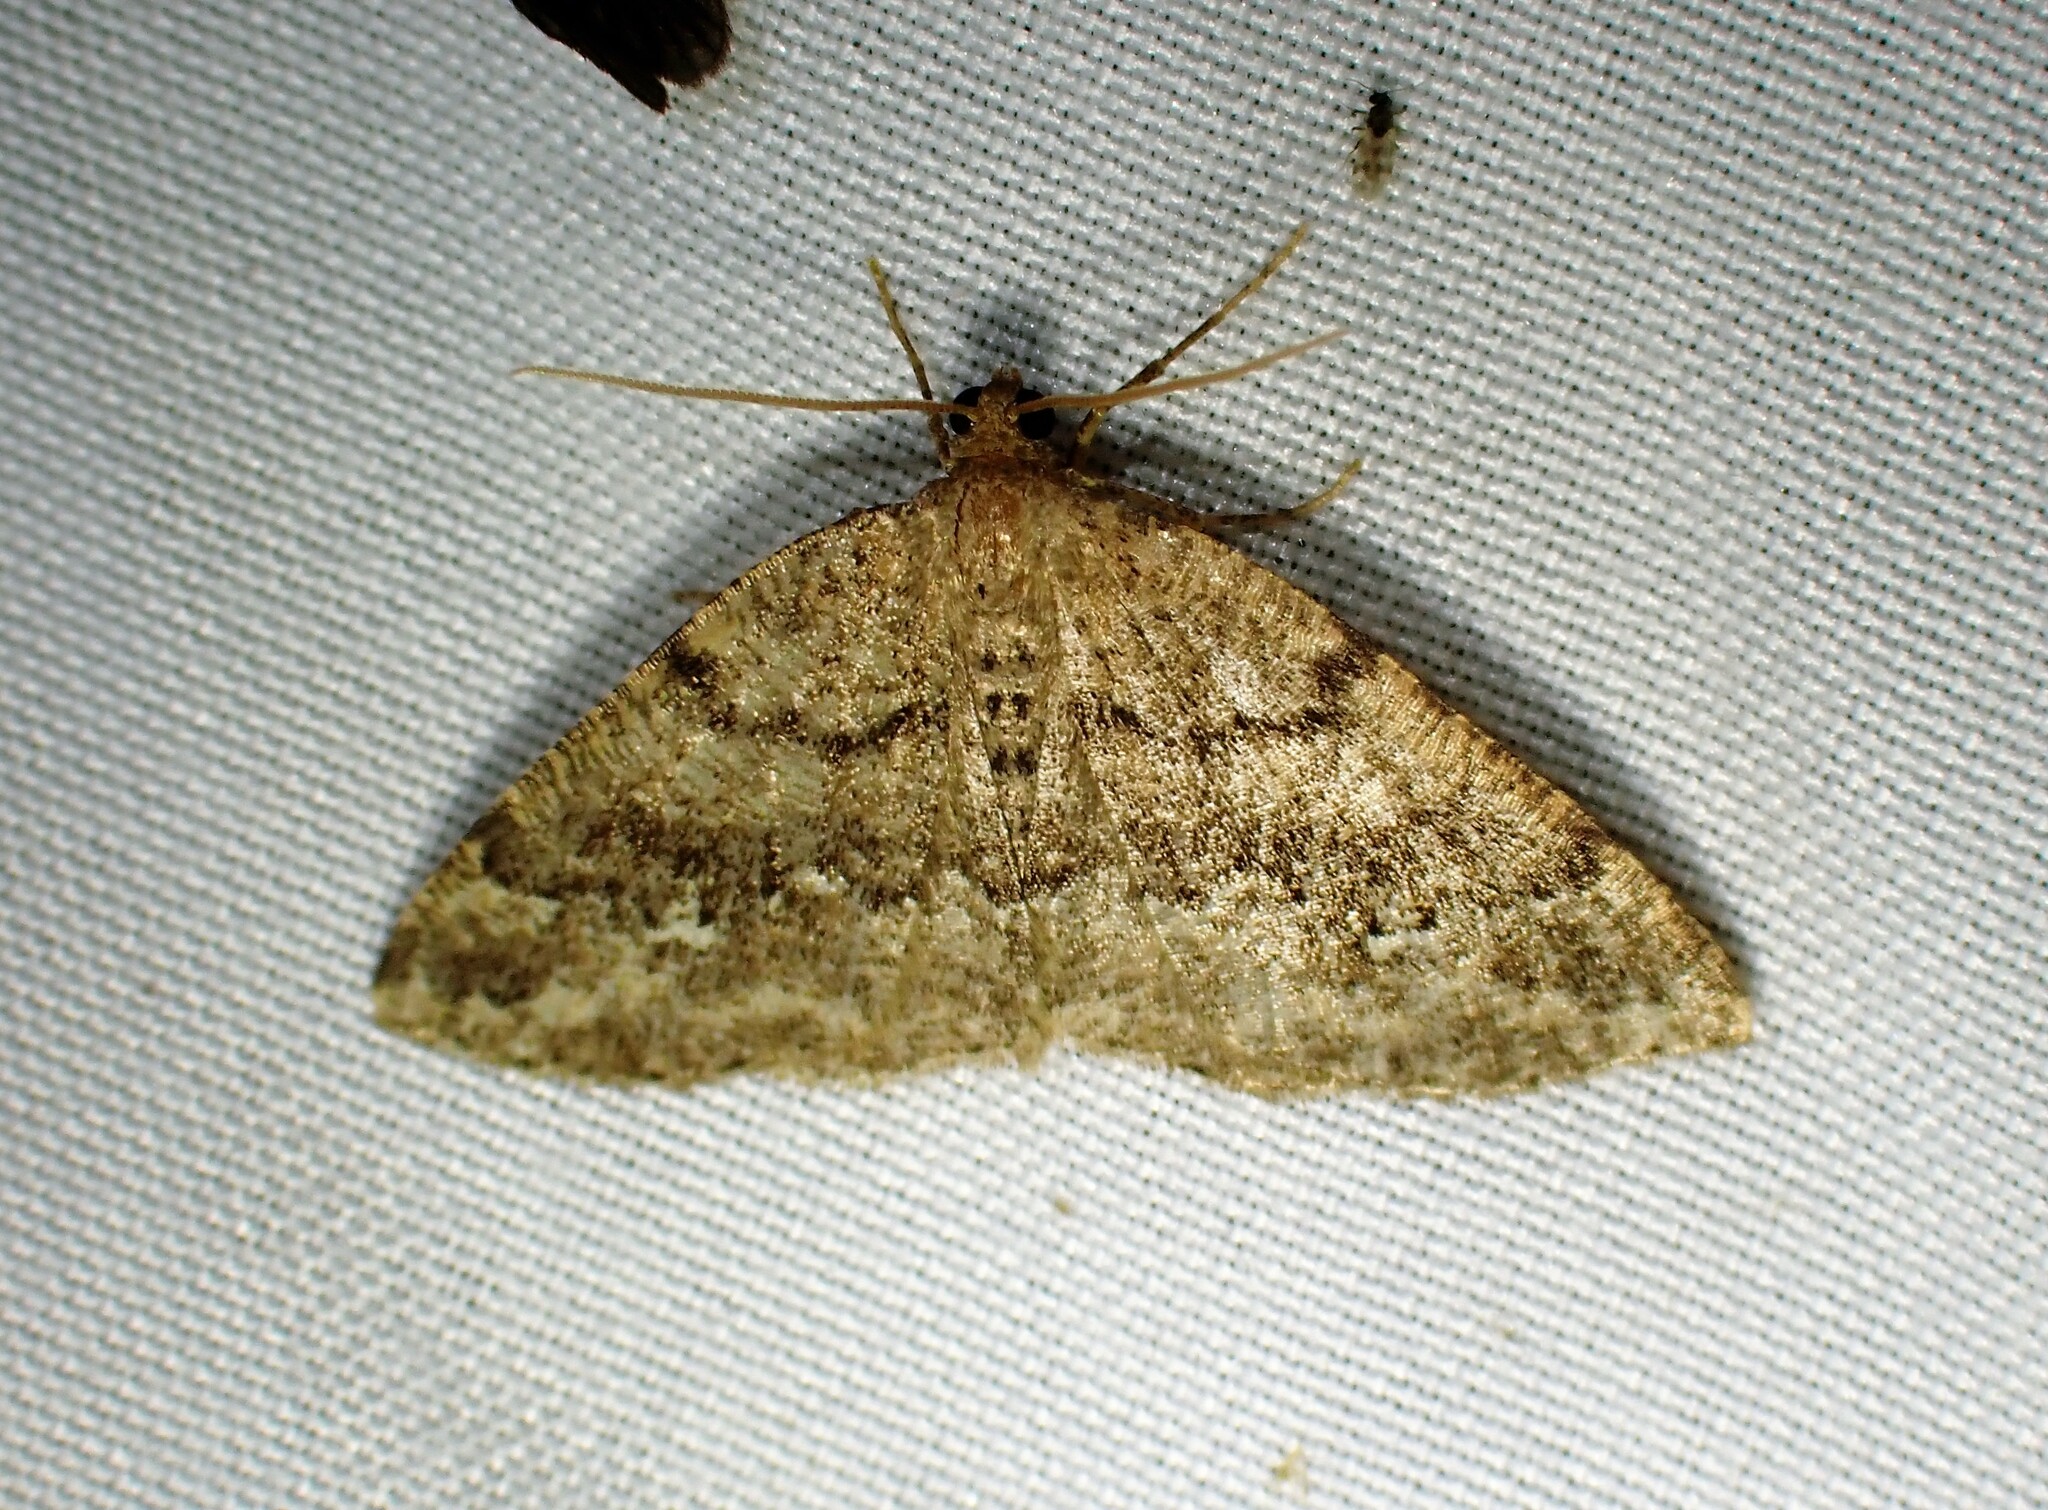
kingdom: Animalia
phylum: Arthropoda
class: Insecta
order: Lepidoptera
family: Geometridae
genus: Homochlodes
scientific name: Homochlodes fritillaria
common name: Pale homochlodes
